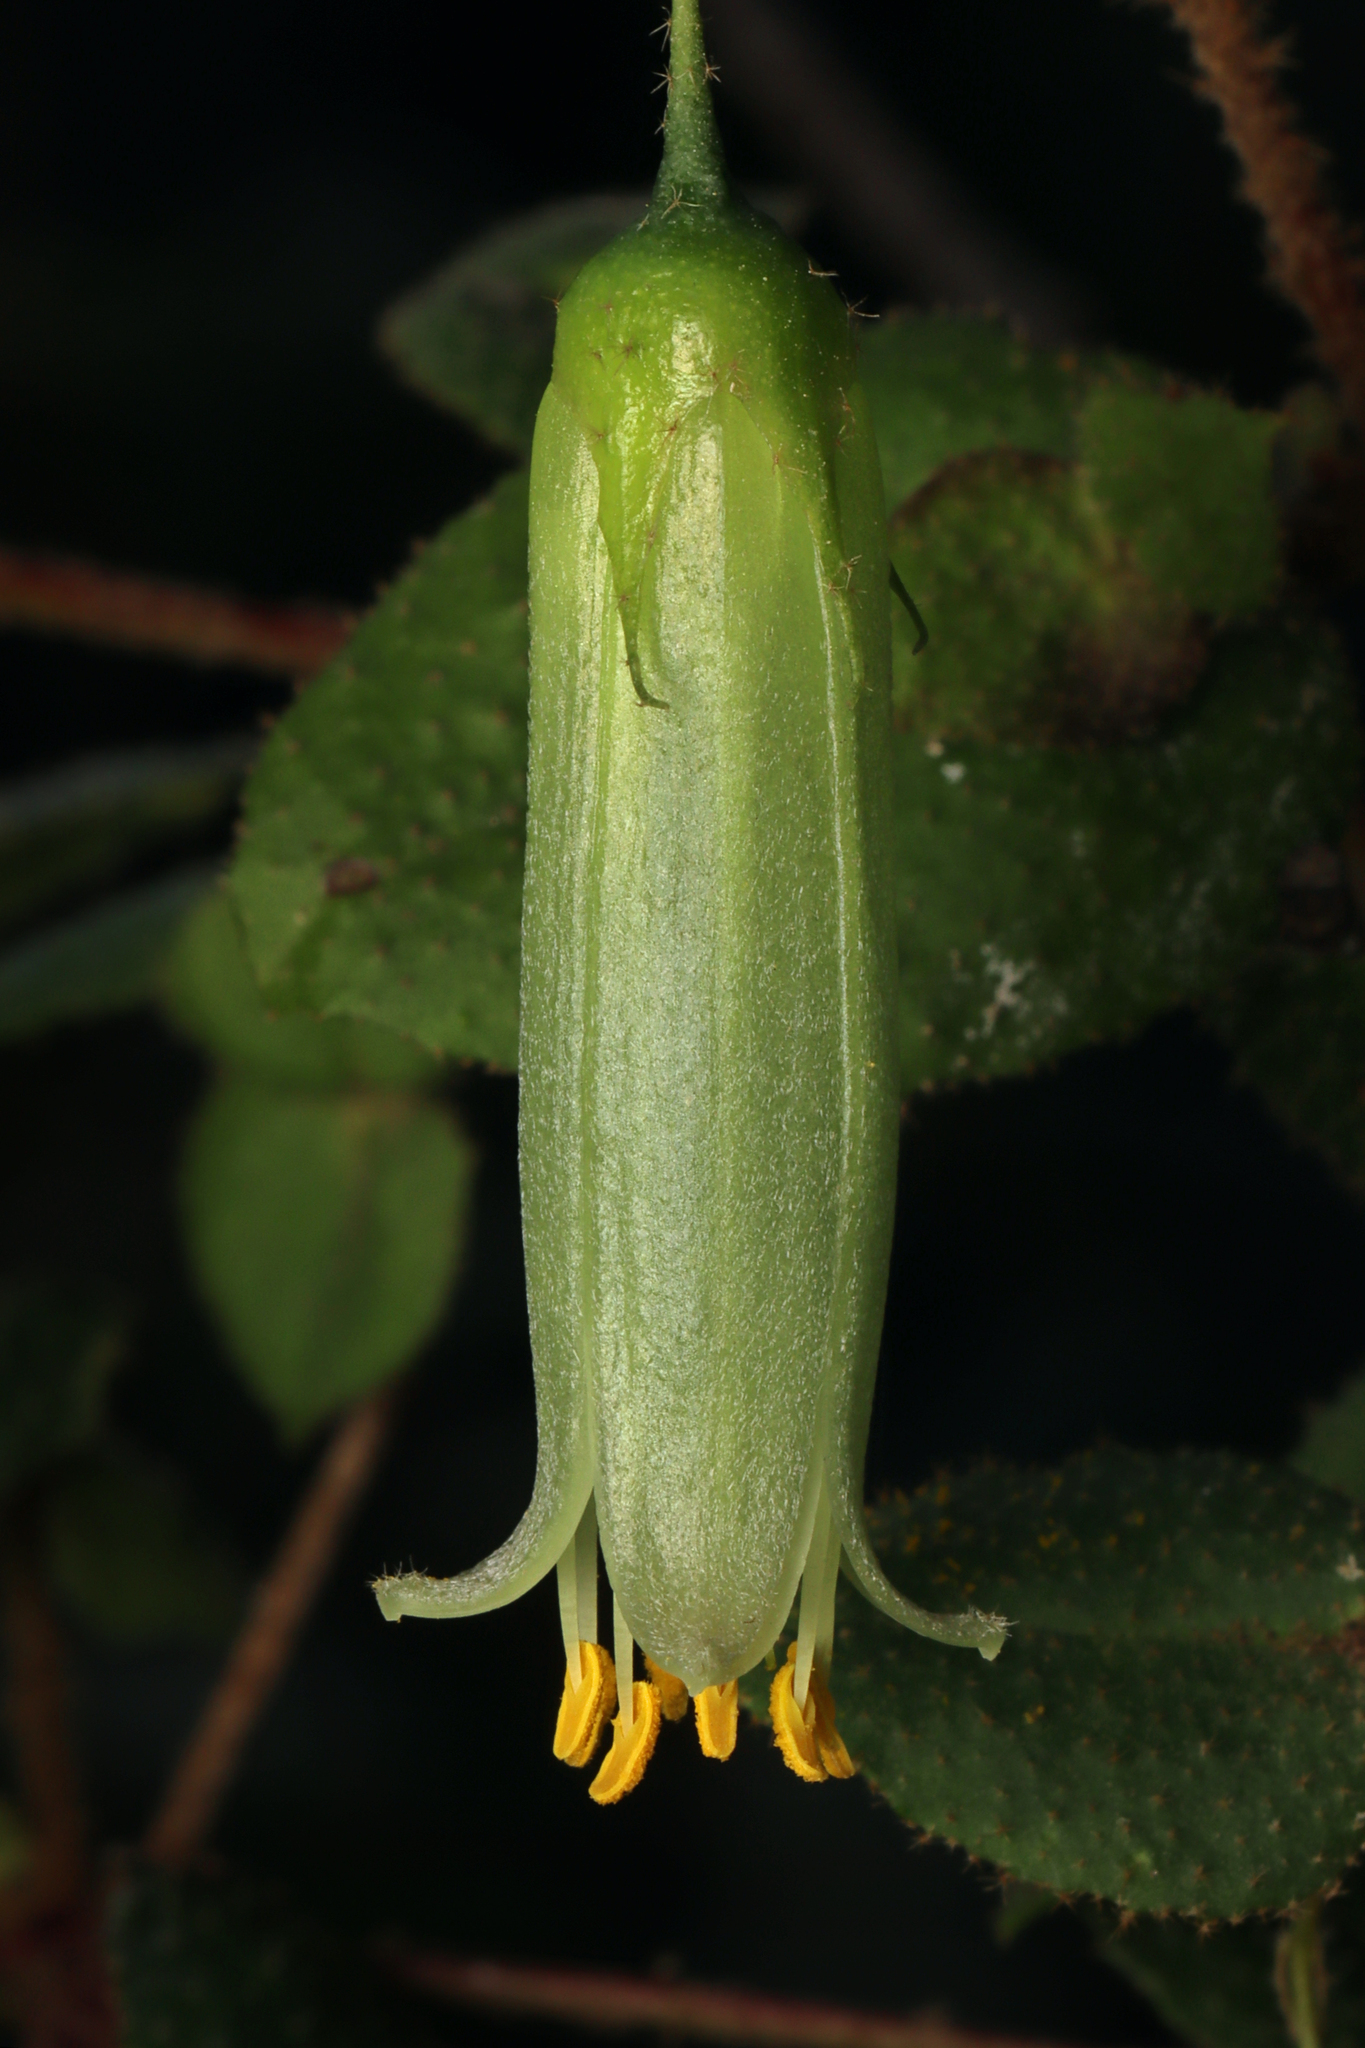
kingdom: Plantae
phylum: Tracheophyta
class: Magnoliopsida
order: Sapindales
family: Rutaceae
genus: Correa
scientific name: Correa aemula
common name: Hairy correa
